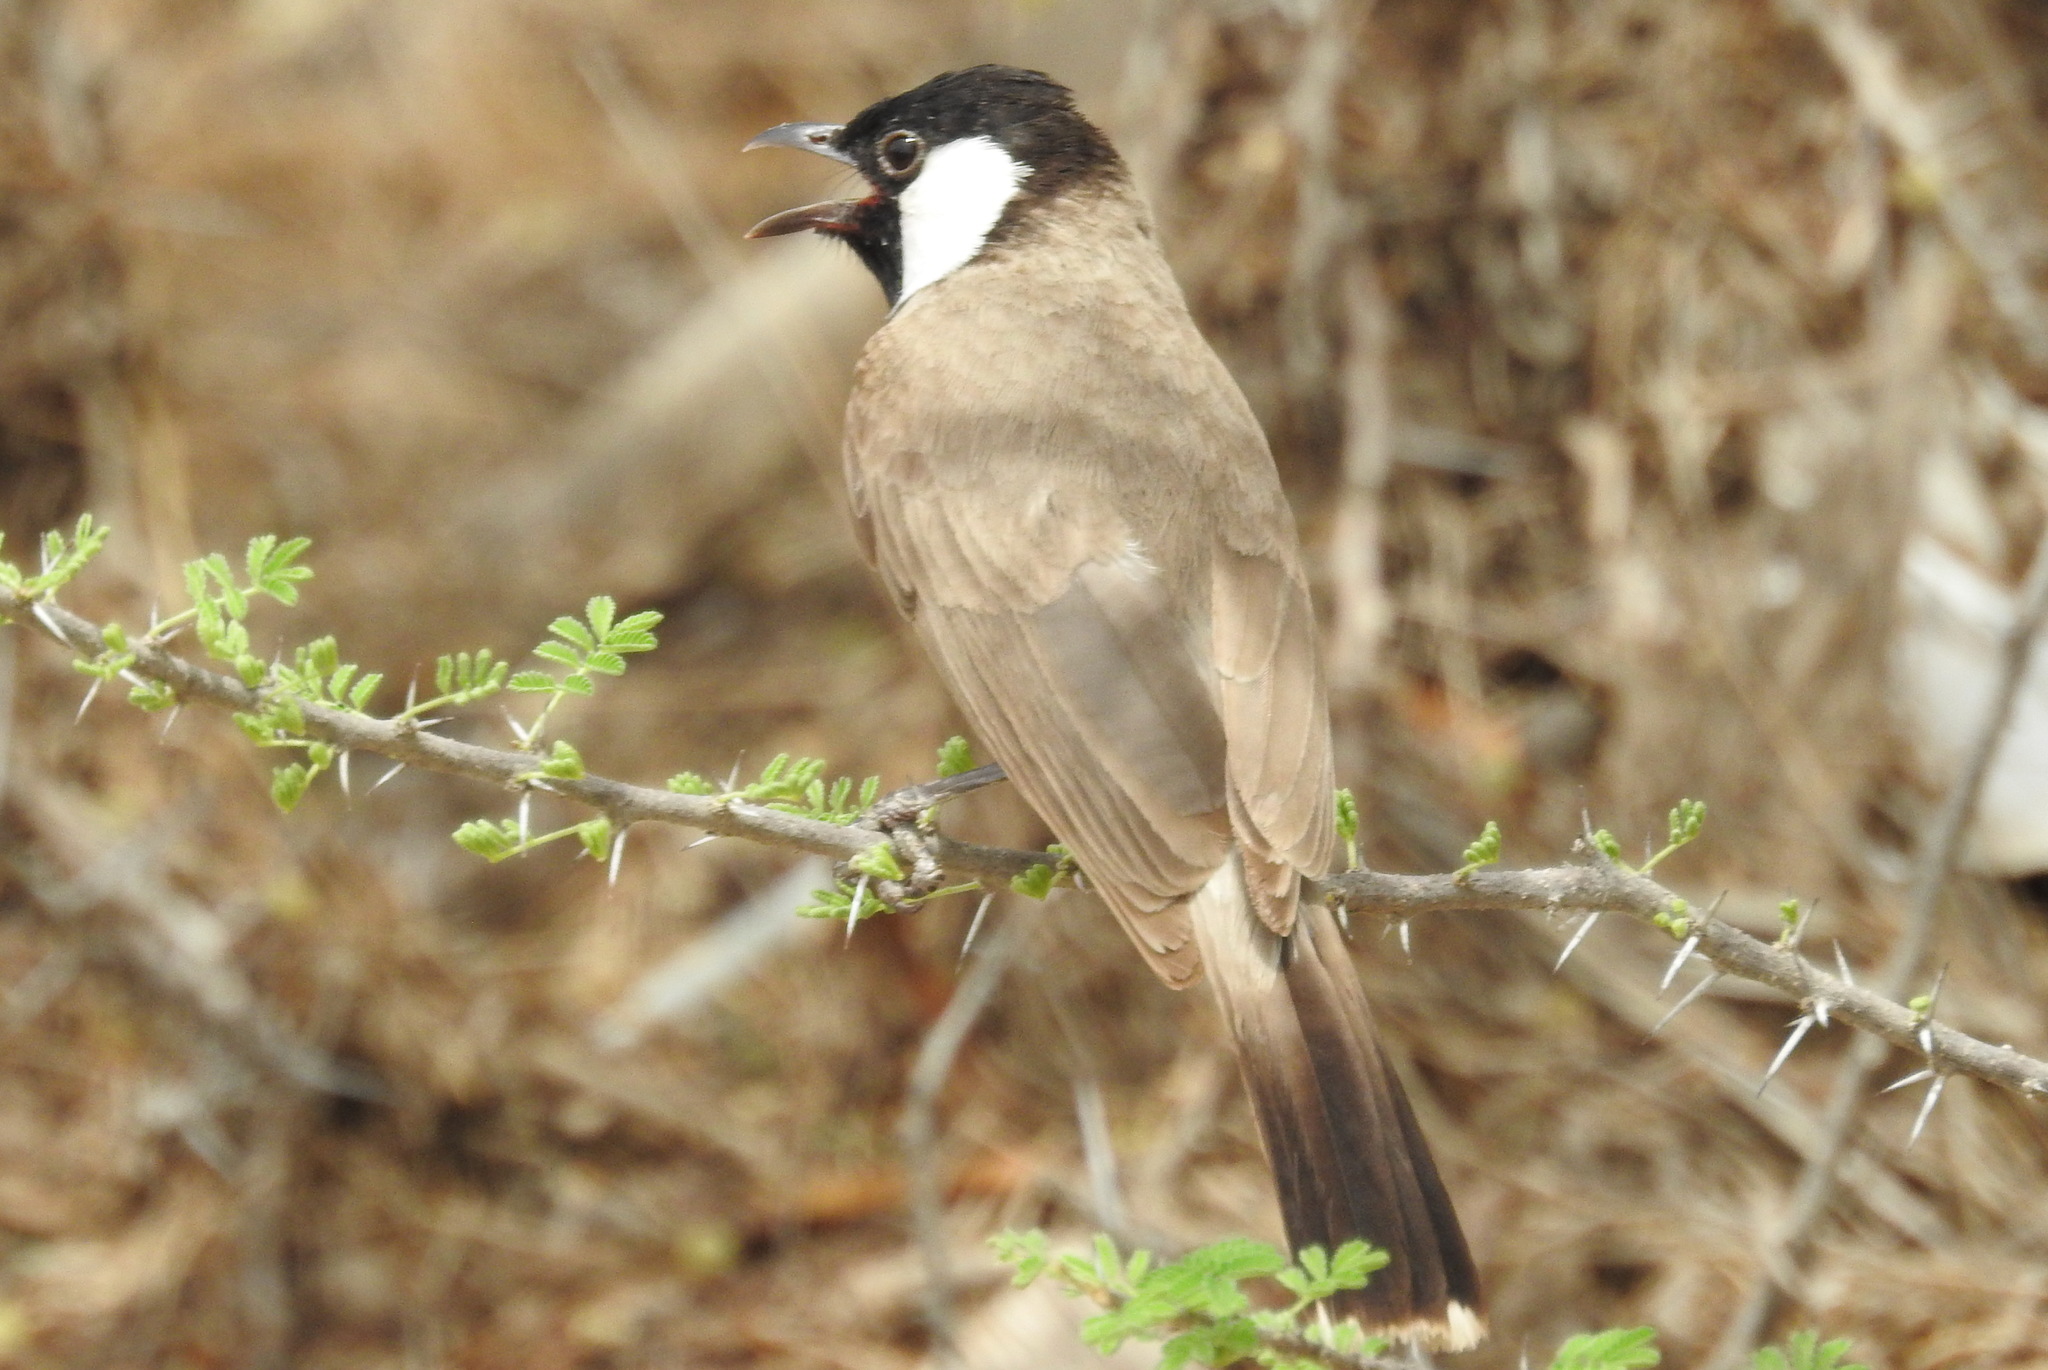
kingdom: Animalia
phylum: Chordata
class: Aves
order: Passeriformes
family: Pycnonotidae
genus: Pycnonotus
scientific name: Pycnonotus leucotis
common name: White-eared bulbul
